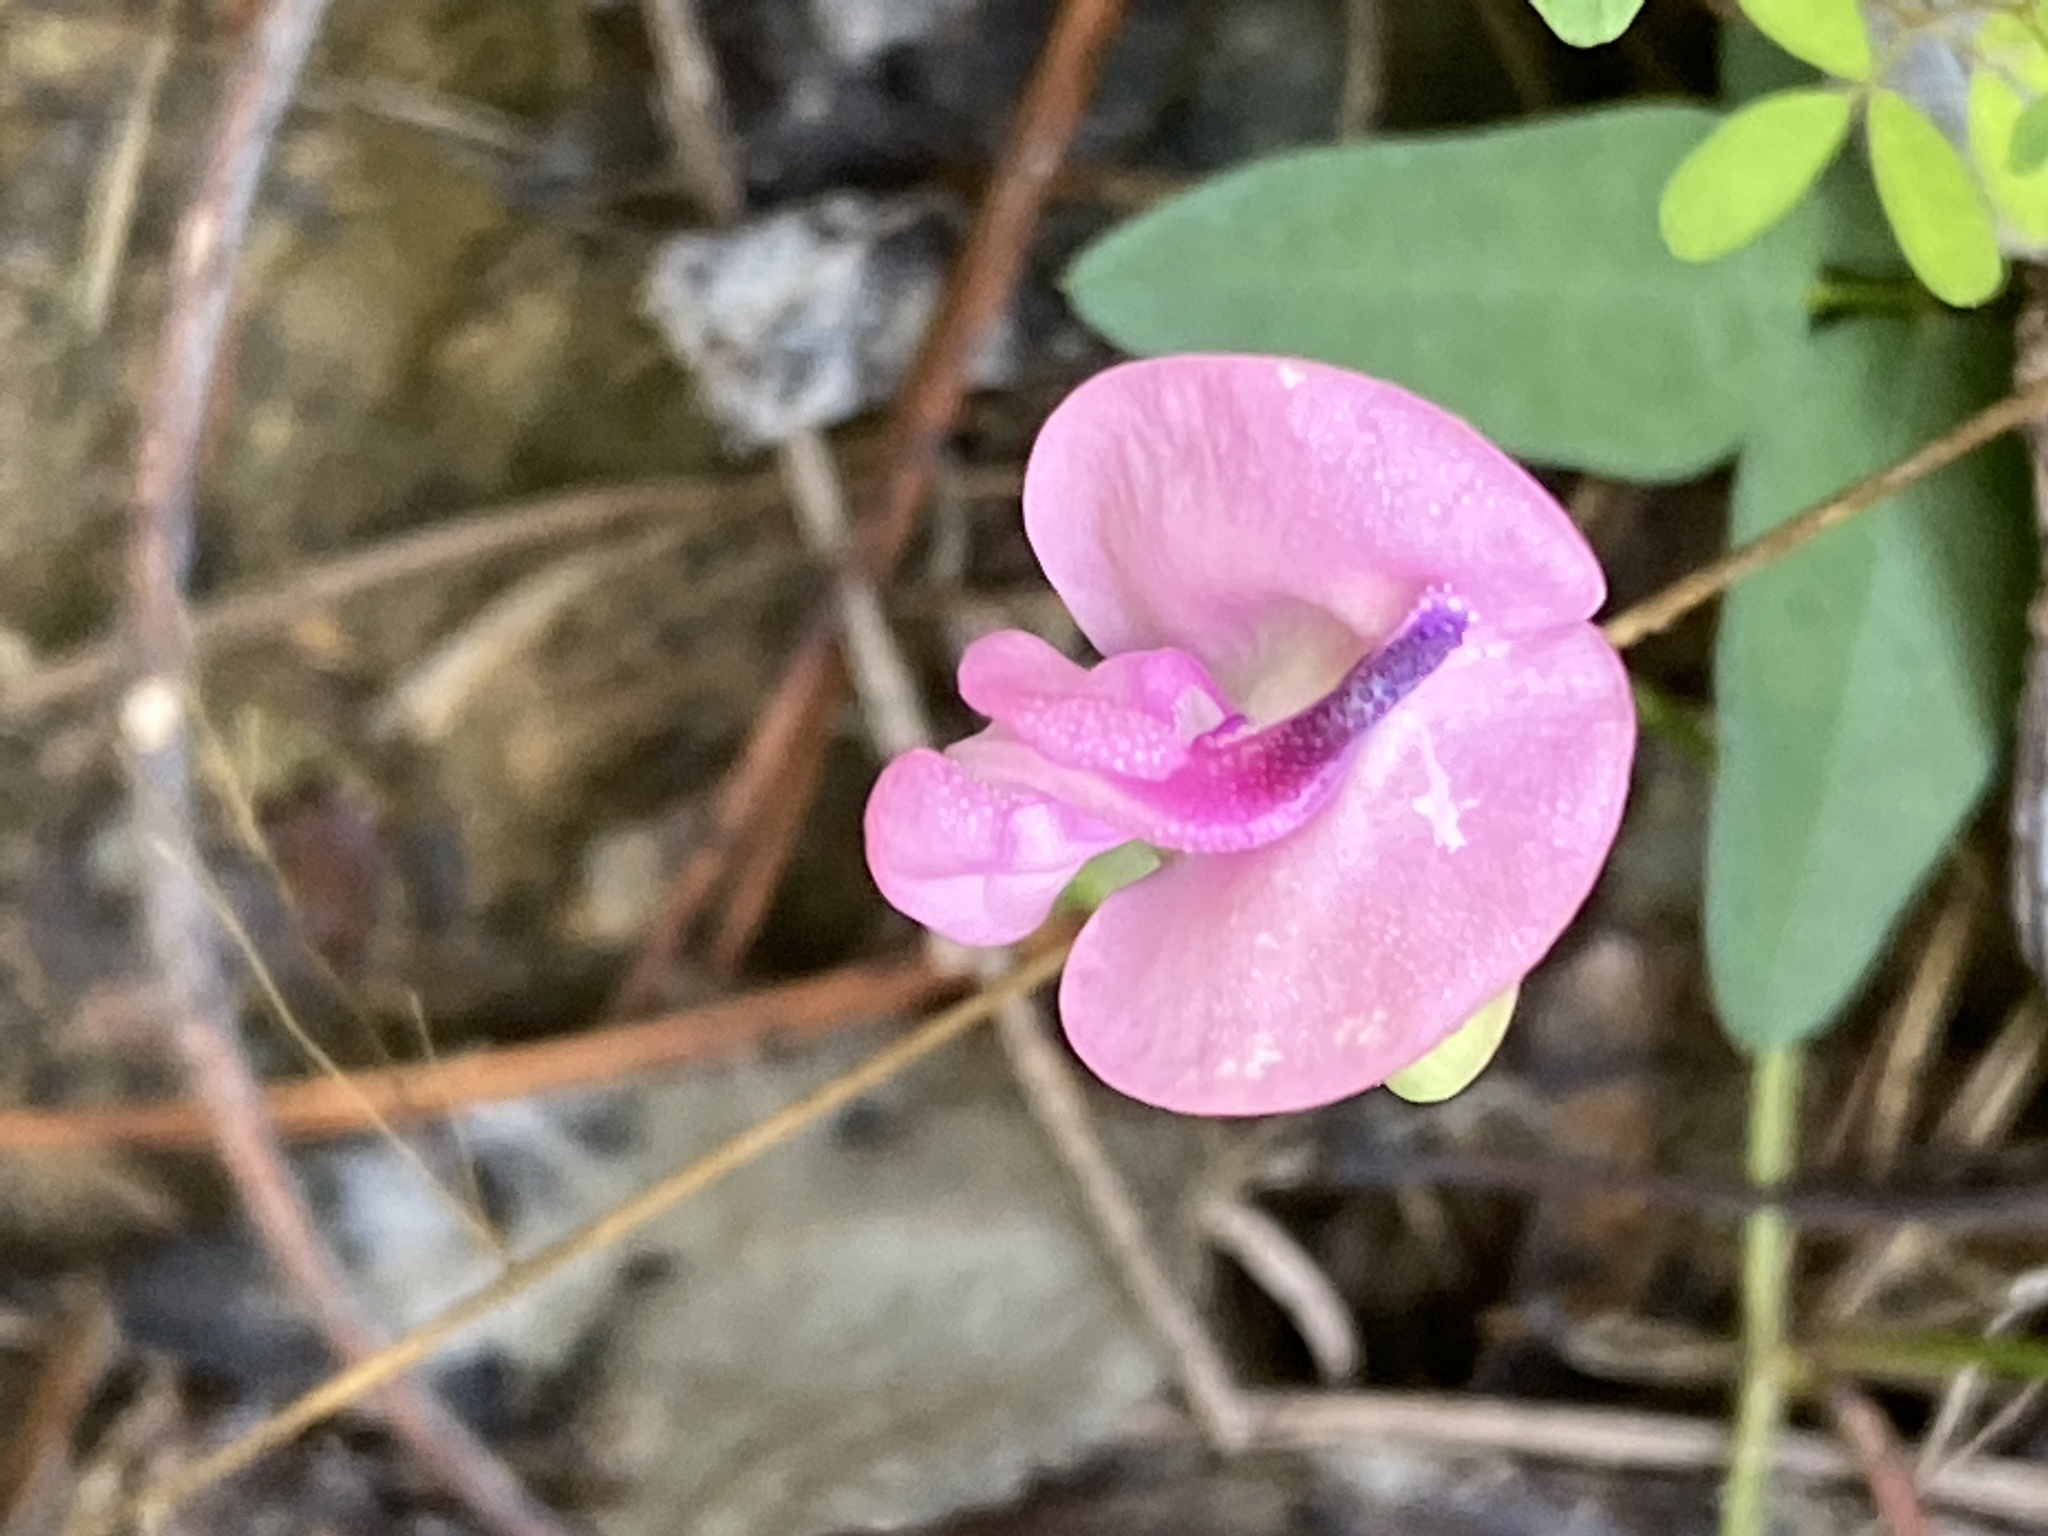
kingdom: Plantae
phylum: Tracheophyta
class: Magnoliopsida
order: Fabales
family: Fabaceae
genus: Strophostyles
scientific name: Strophostyles umbellata
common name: Perennial wild bean
